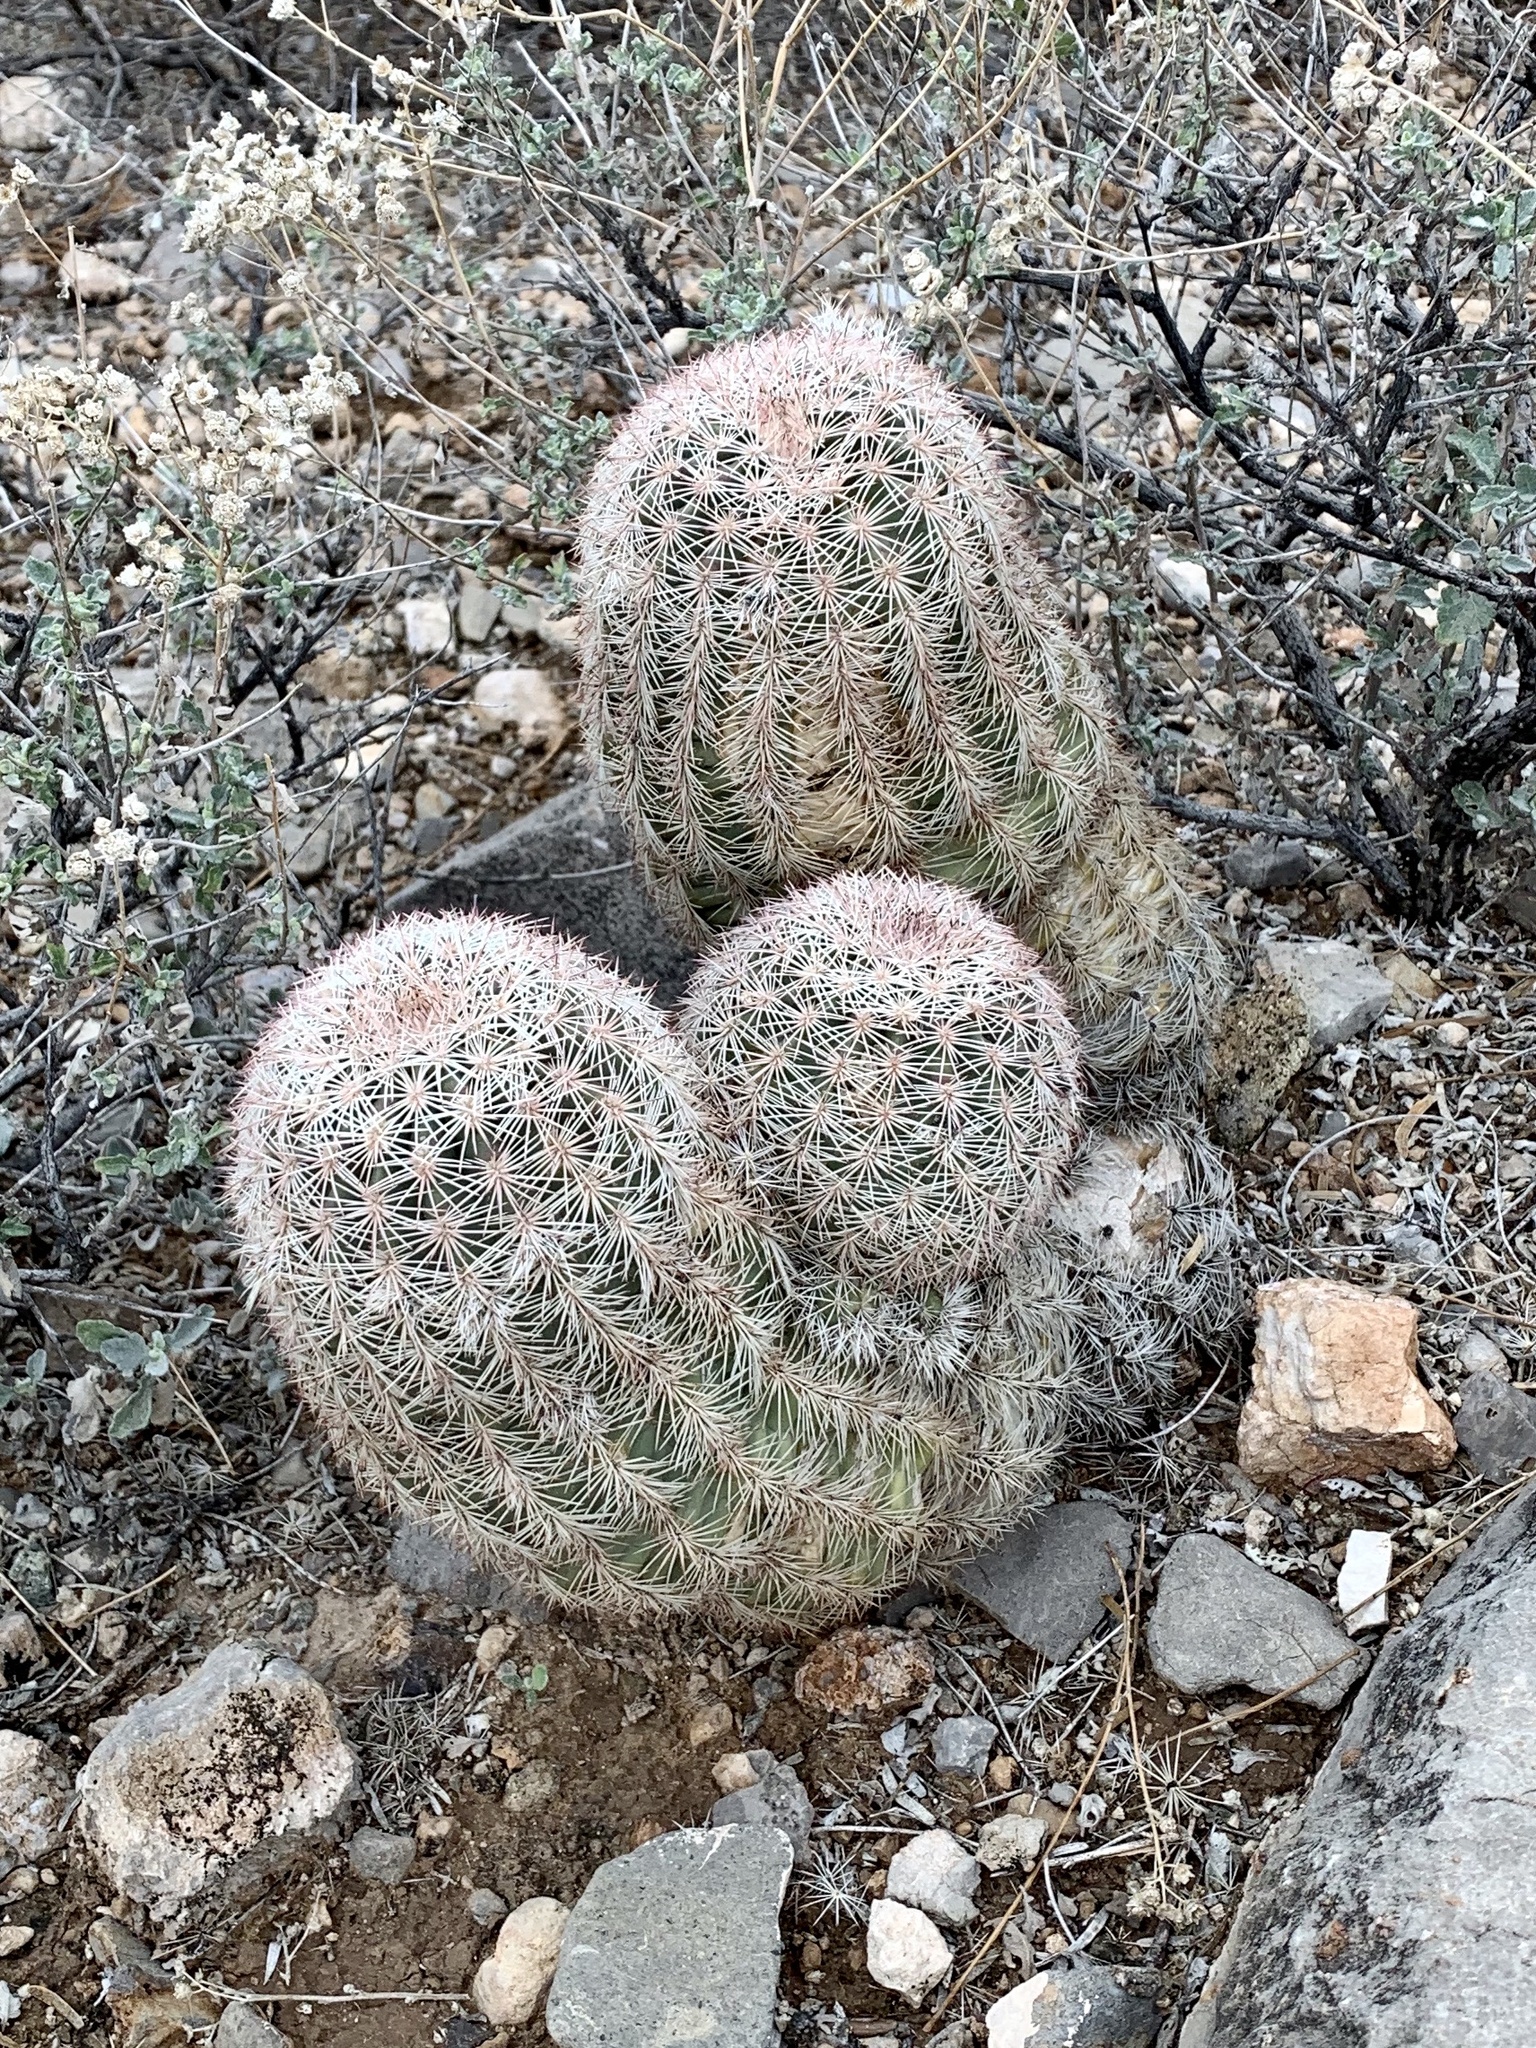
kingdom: Plantae
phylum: Tracheophyta
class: Magnoliopsida
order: Caryophyllales
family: Cactaceae
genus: Echinocereus
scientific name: Echinocereus dasyacanthus
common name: Spiny hedgehog cactus
